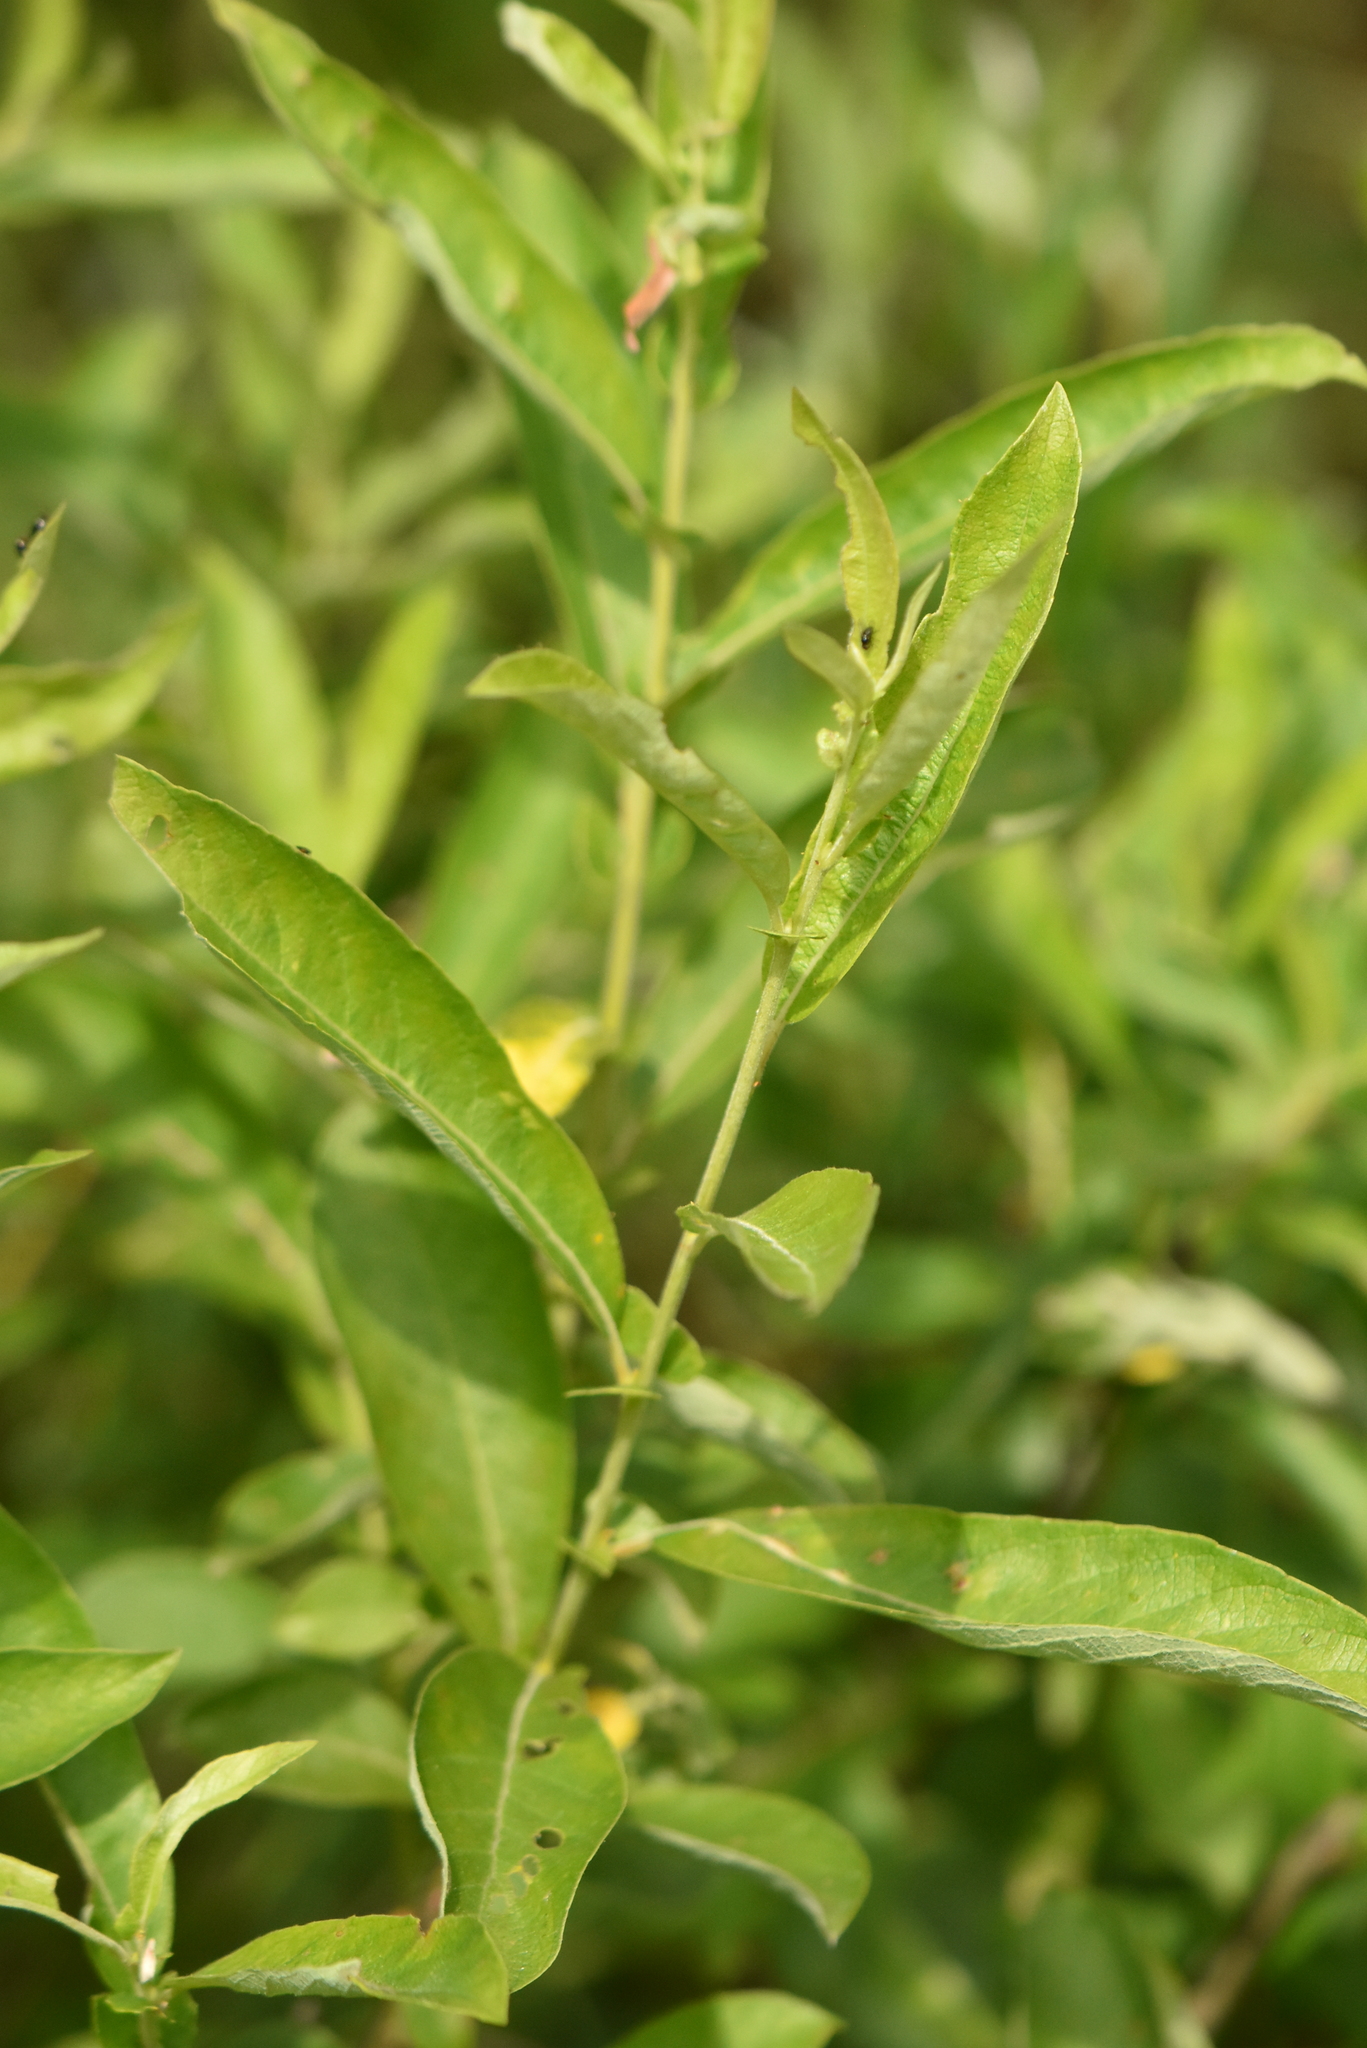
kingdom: Plantae
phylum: Tracheophyta
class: Magnoliopsida
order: Malpighiales
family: Salicaceae
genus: Salix
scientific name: Salix cinerea
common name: Common sallow
